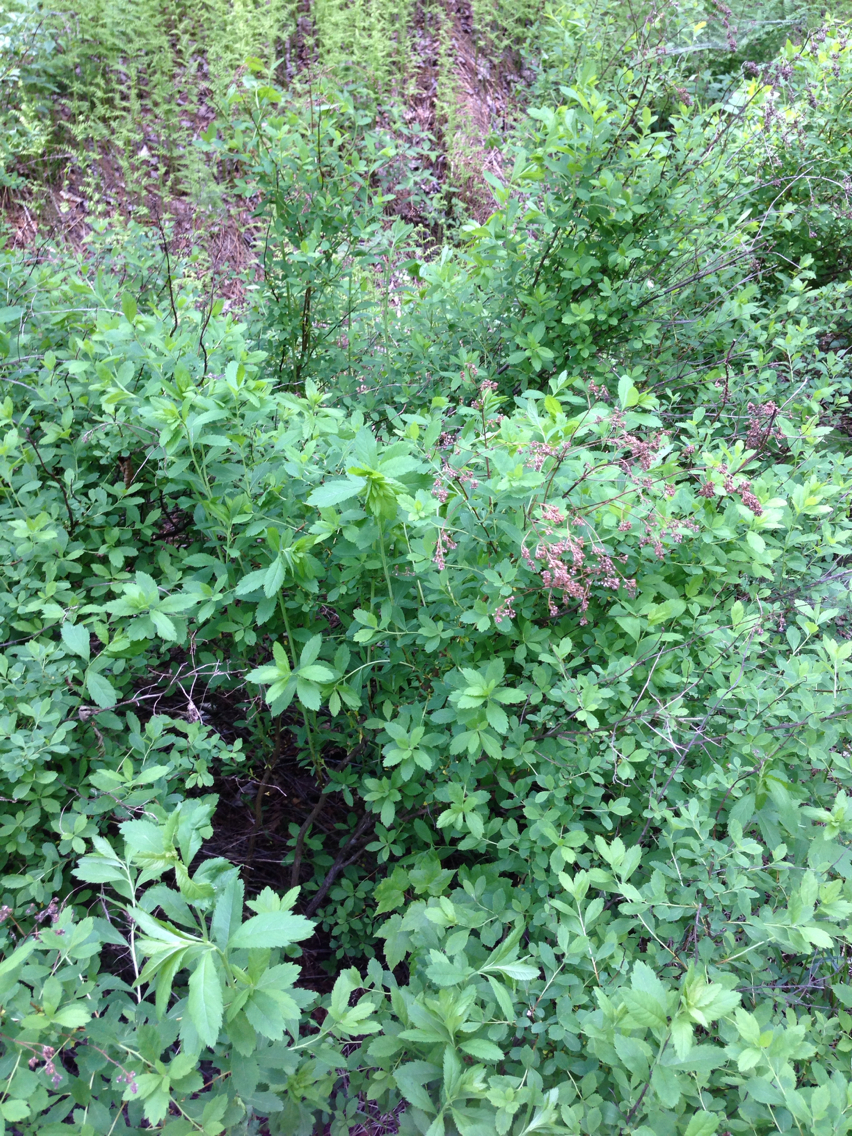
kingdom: Plantae
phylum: Tracheophyta
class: Magnoliopsida
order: Rosales
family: Rosaceae
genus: Spiraea
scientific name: Spiraea alba
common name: Pale bridewort
